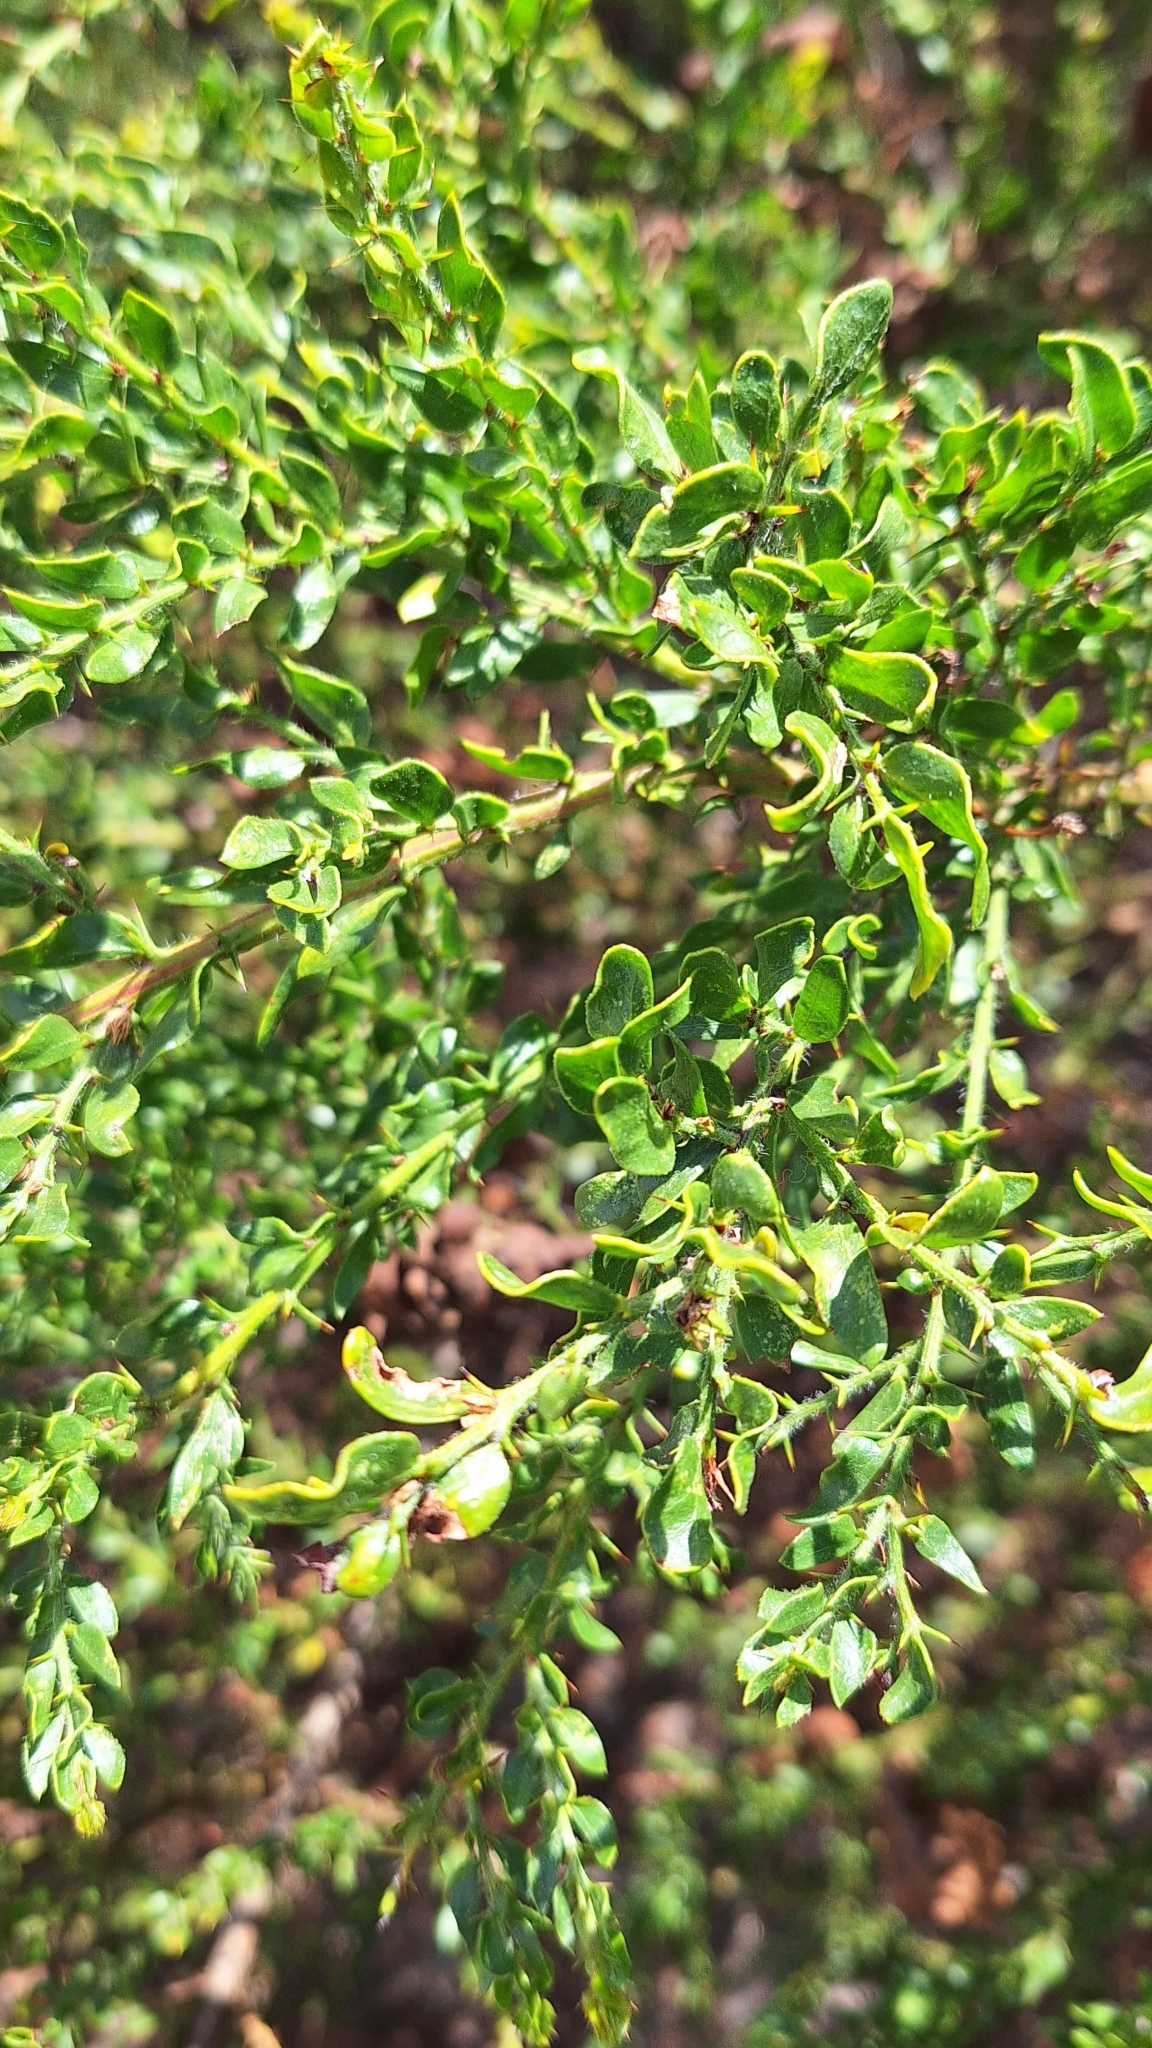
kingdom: Plantae
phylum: Tracheophyta
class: Magnoliopsida
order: Fabales
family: Fabaceae
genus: Acacia
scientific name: Acacia paradoxa
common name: Paradox acacia
